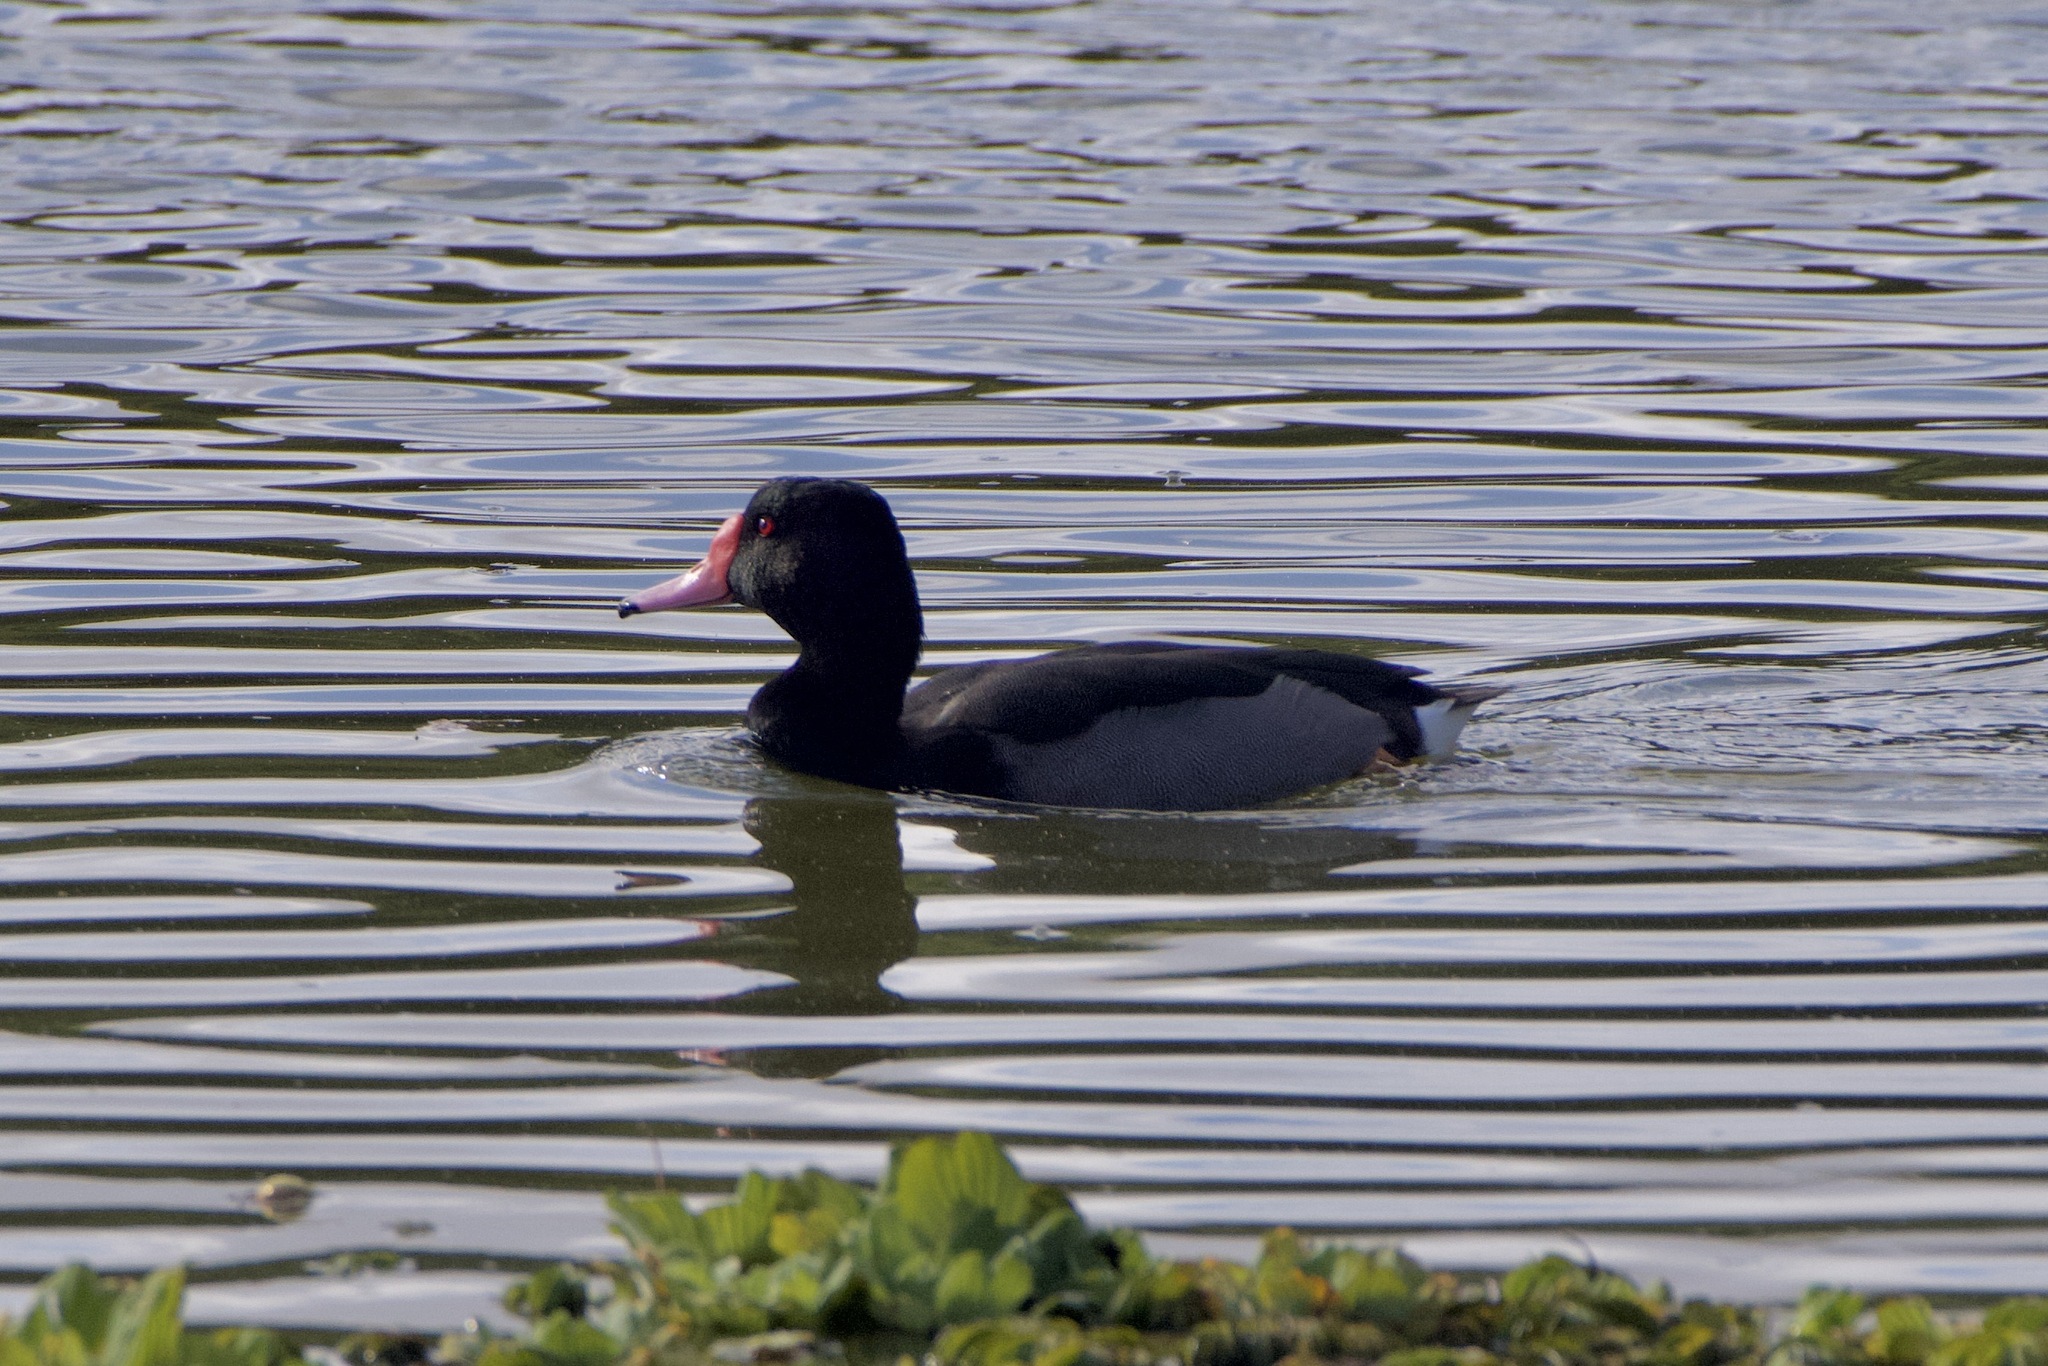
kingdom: Animalia
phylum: Chordata
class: Aves
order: Anseriformes
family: Anatidae
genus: Netta
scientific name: Netta peposaca
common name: Rosy-billed pochard
